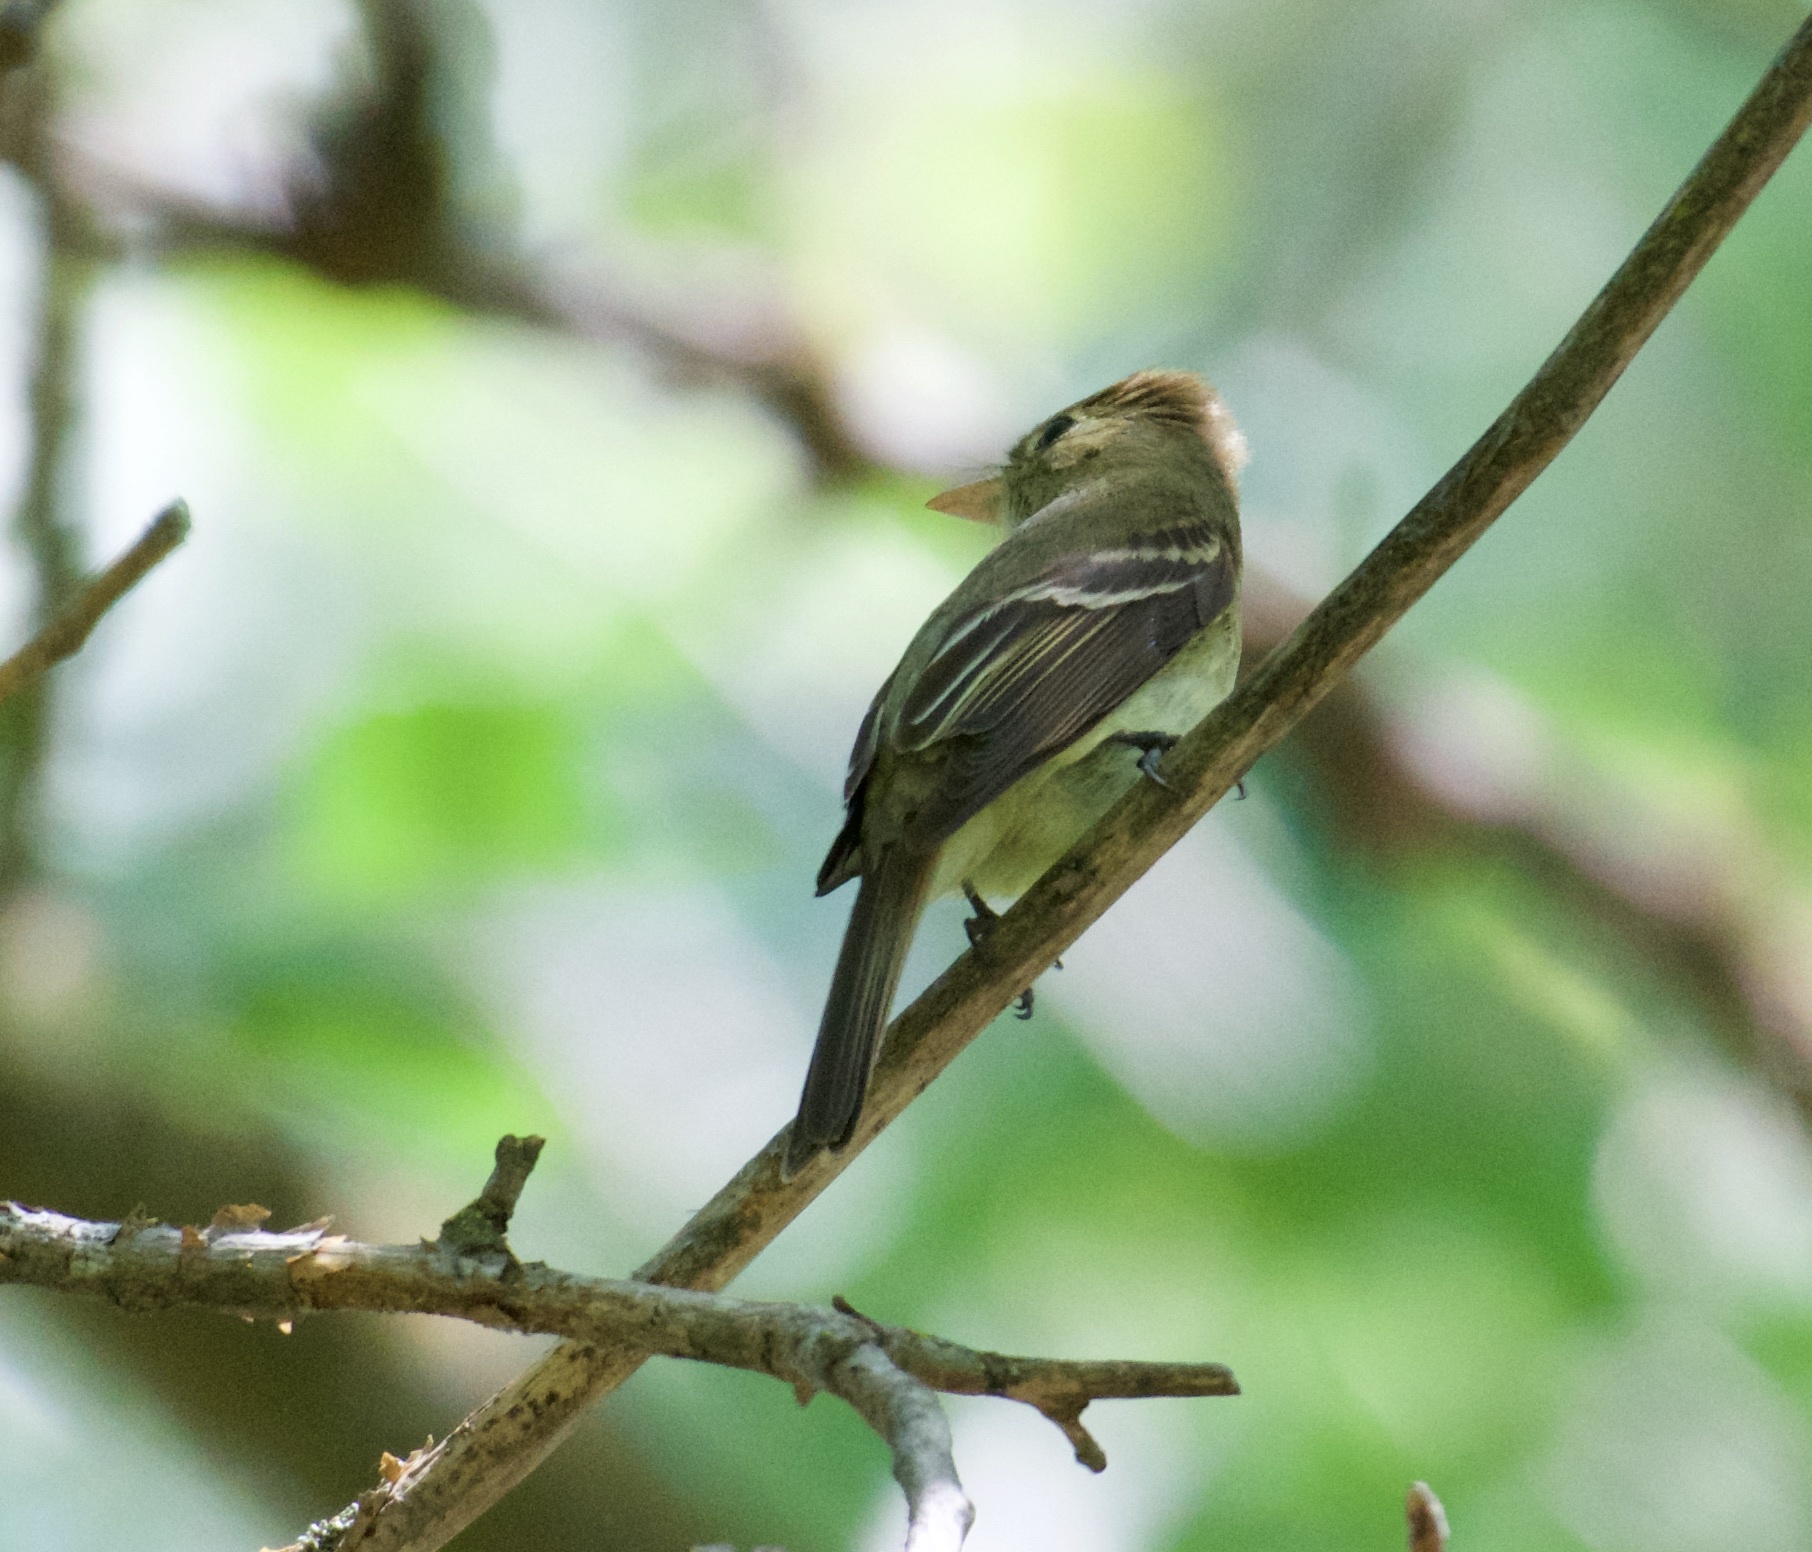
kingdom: Animalia
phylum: Chordata
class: Aves
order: Passeriformes
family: Tyrannidae
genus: Empidonax
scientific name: Empidonax difficilis
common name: Pacific-slope flycatcher
